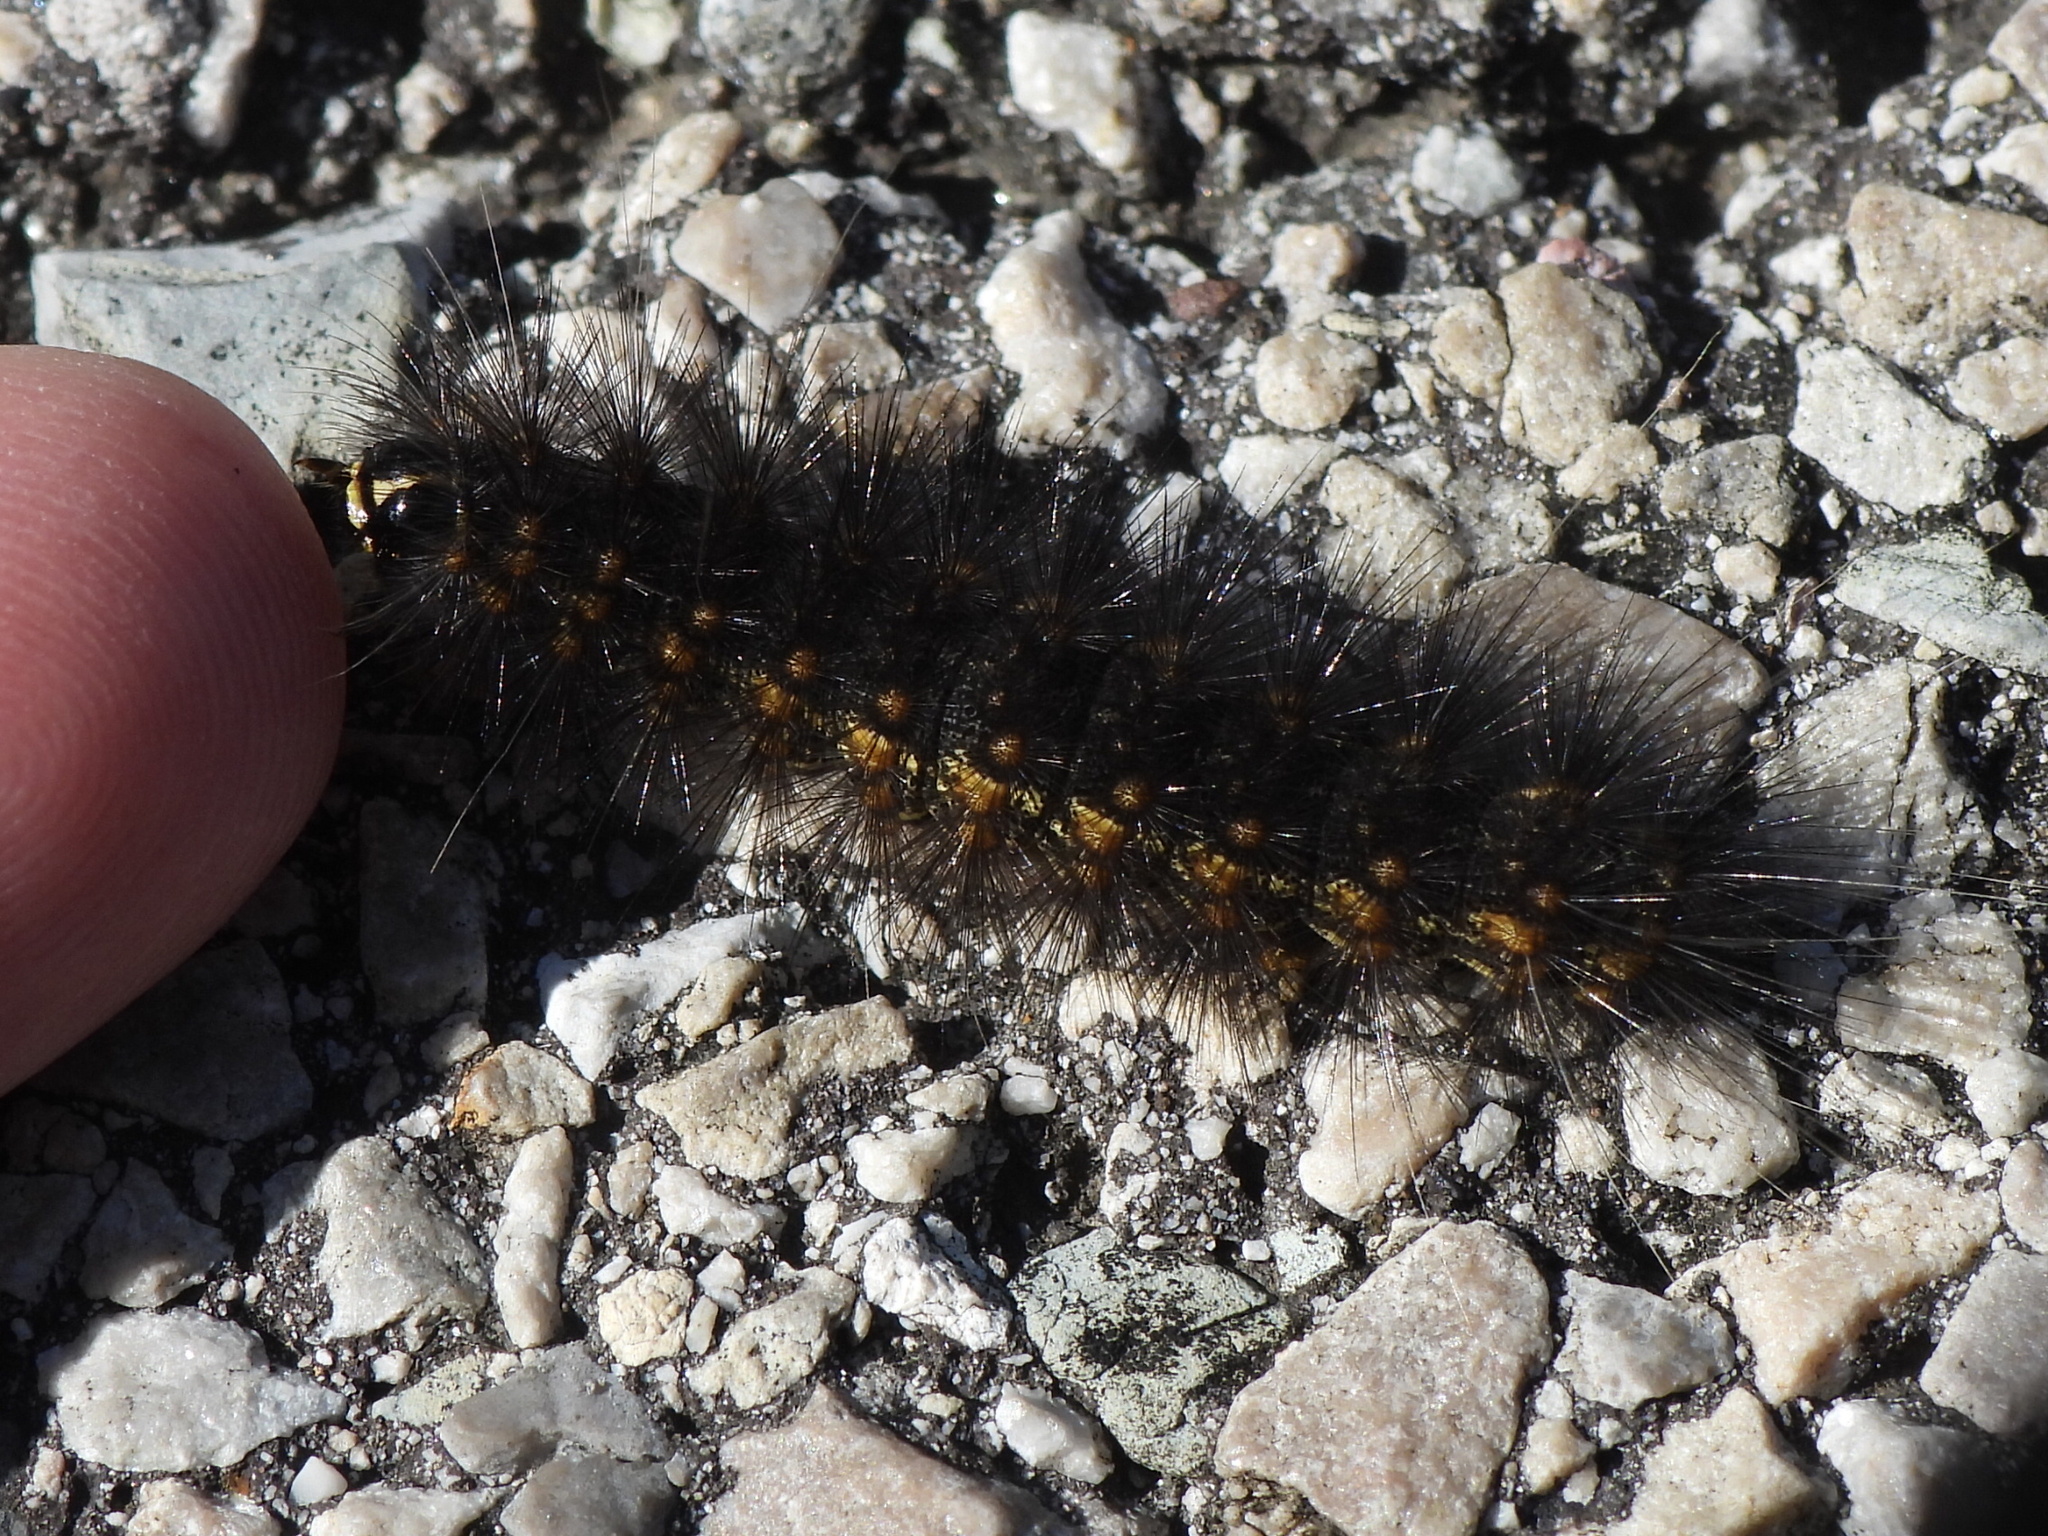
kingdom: Animalia
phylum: Arthropoda
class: Insecta
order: Lepidoptera
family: Erebidae
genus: Estigmene
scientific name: Estigmene acrea
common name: Salt marsh moth
